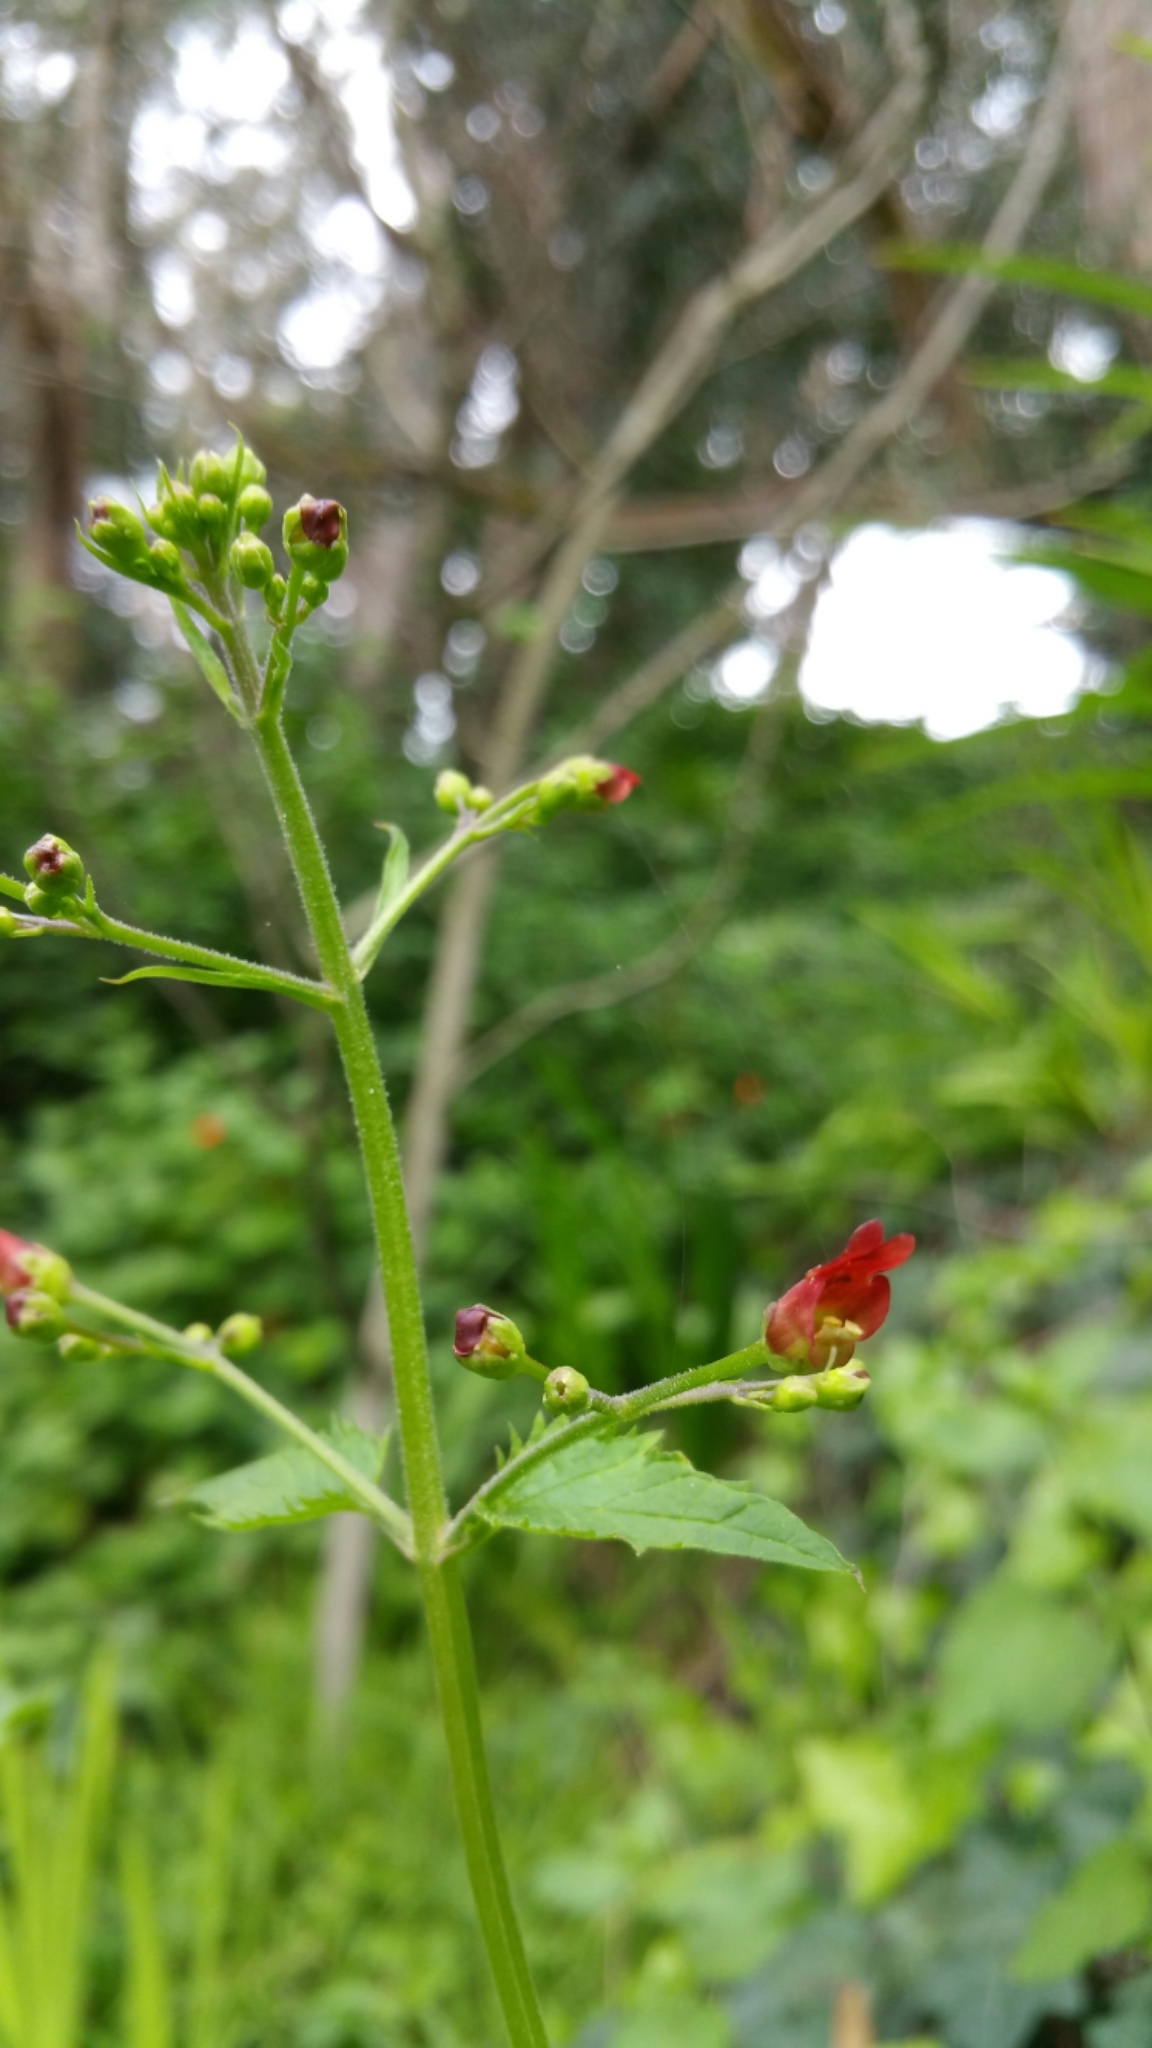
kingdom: Plantae
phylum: Tracheophyta
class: Magnoliopsida
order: Lamiales
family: Scrophulariaceae
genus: Scrophularia
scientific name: Scrophularia californica
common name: California figwort
